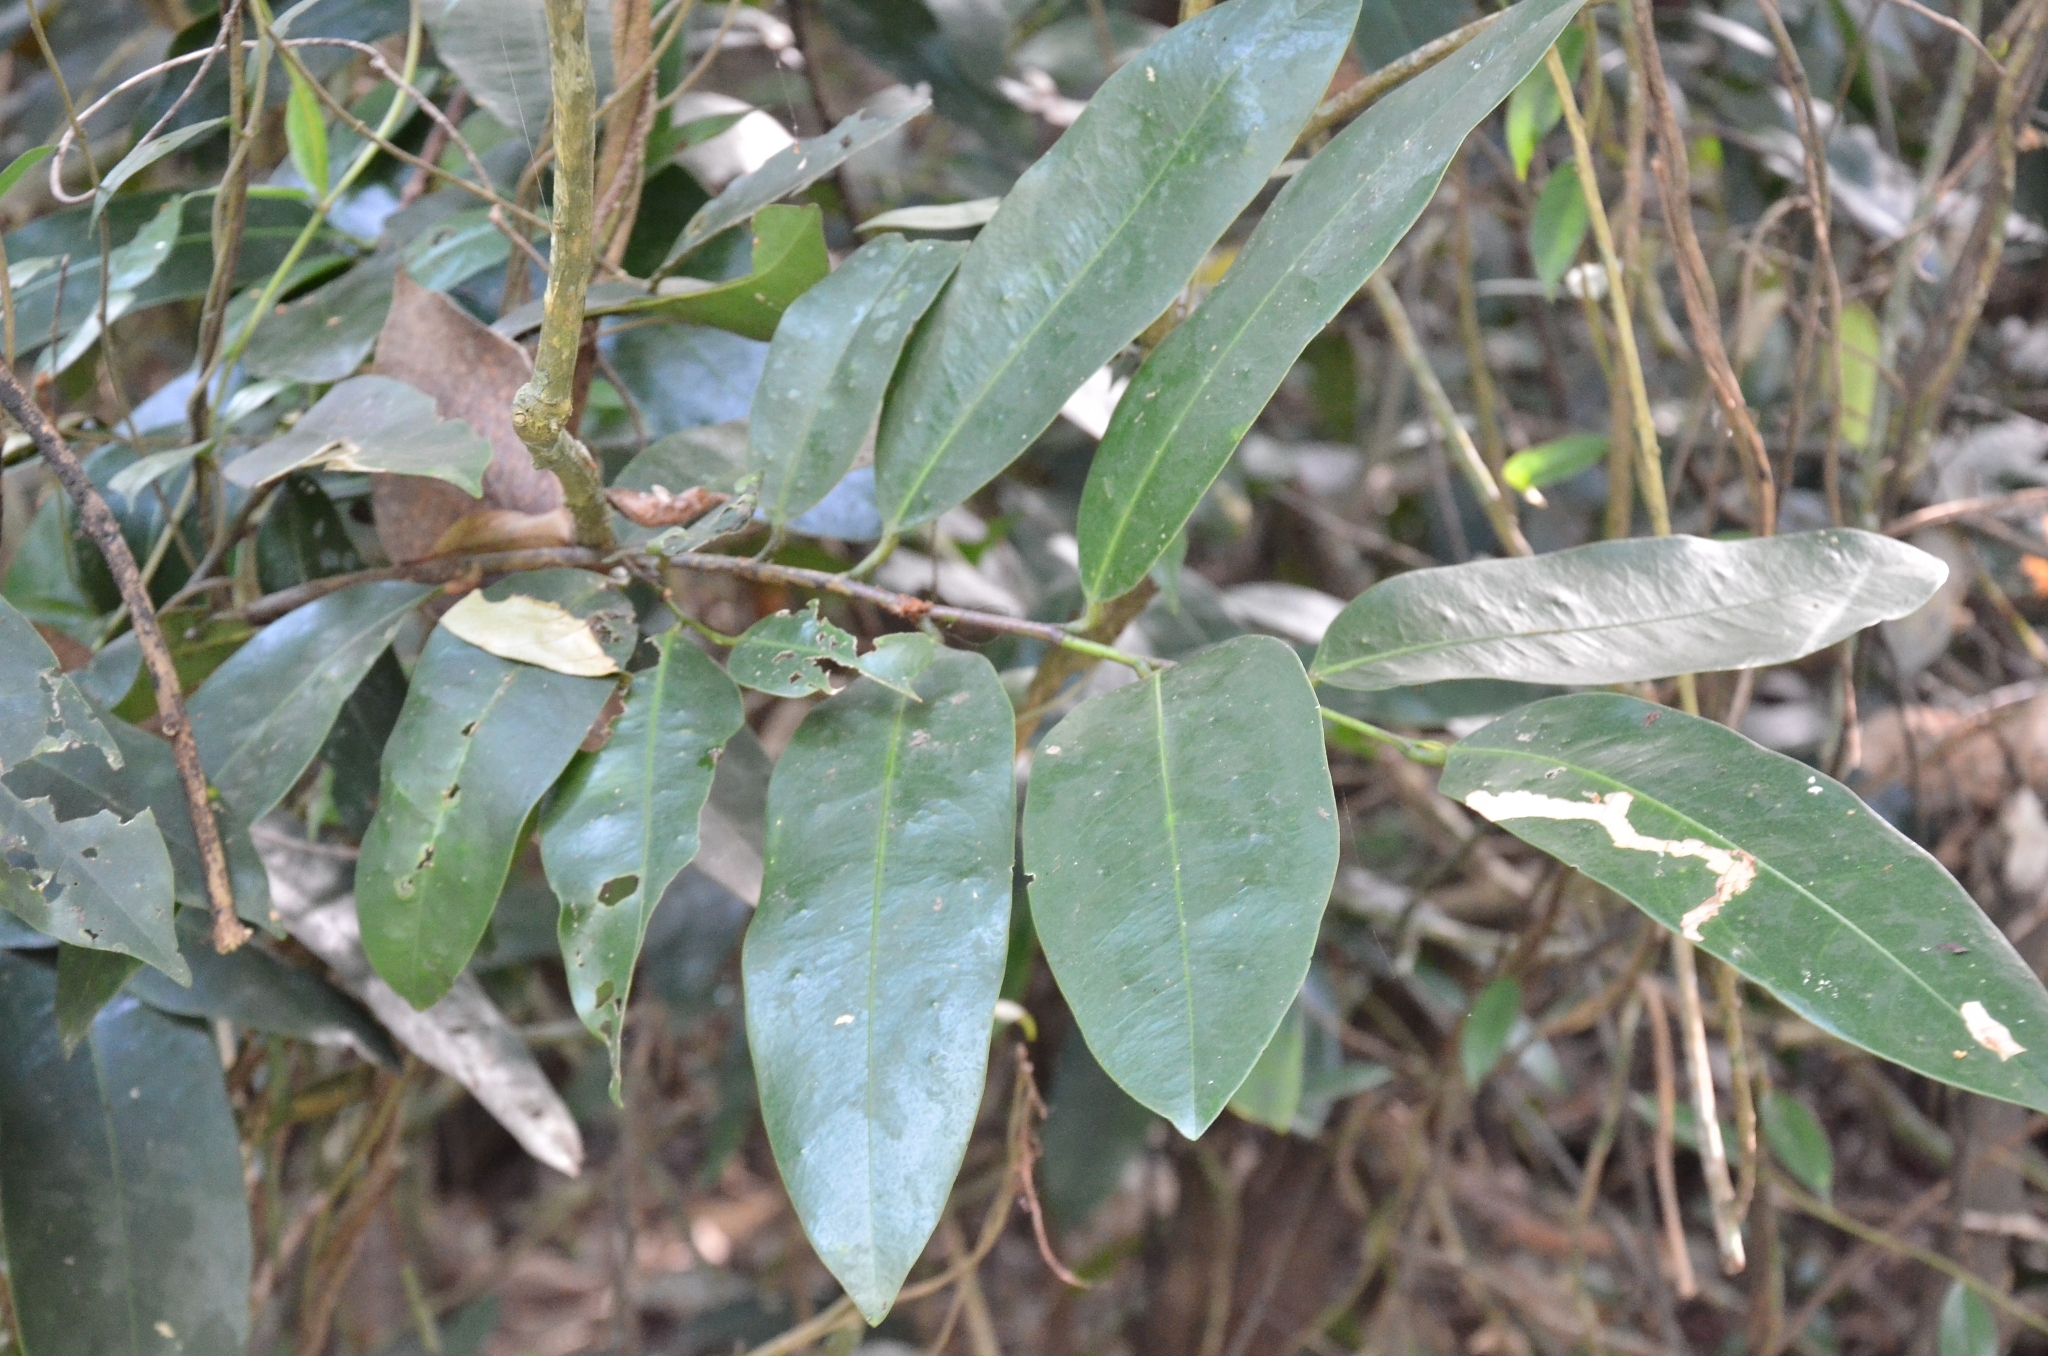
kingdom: Plantae
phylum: Tracheophyta
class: Magnoliopsida
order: Sapindales
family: Simaroubaceae
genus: Samadera
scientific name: Samadera indica
